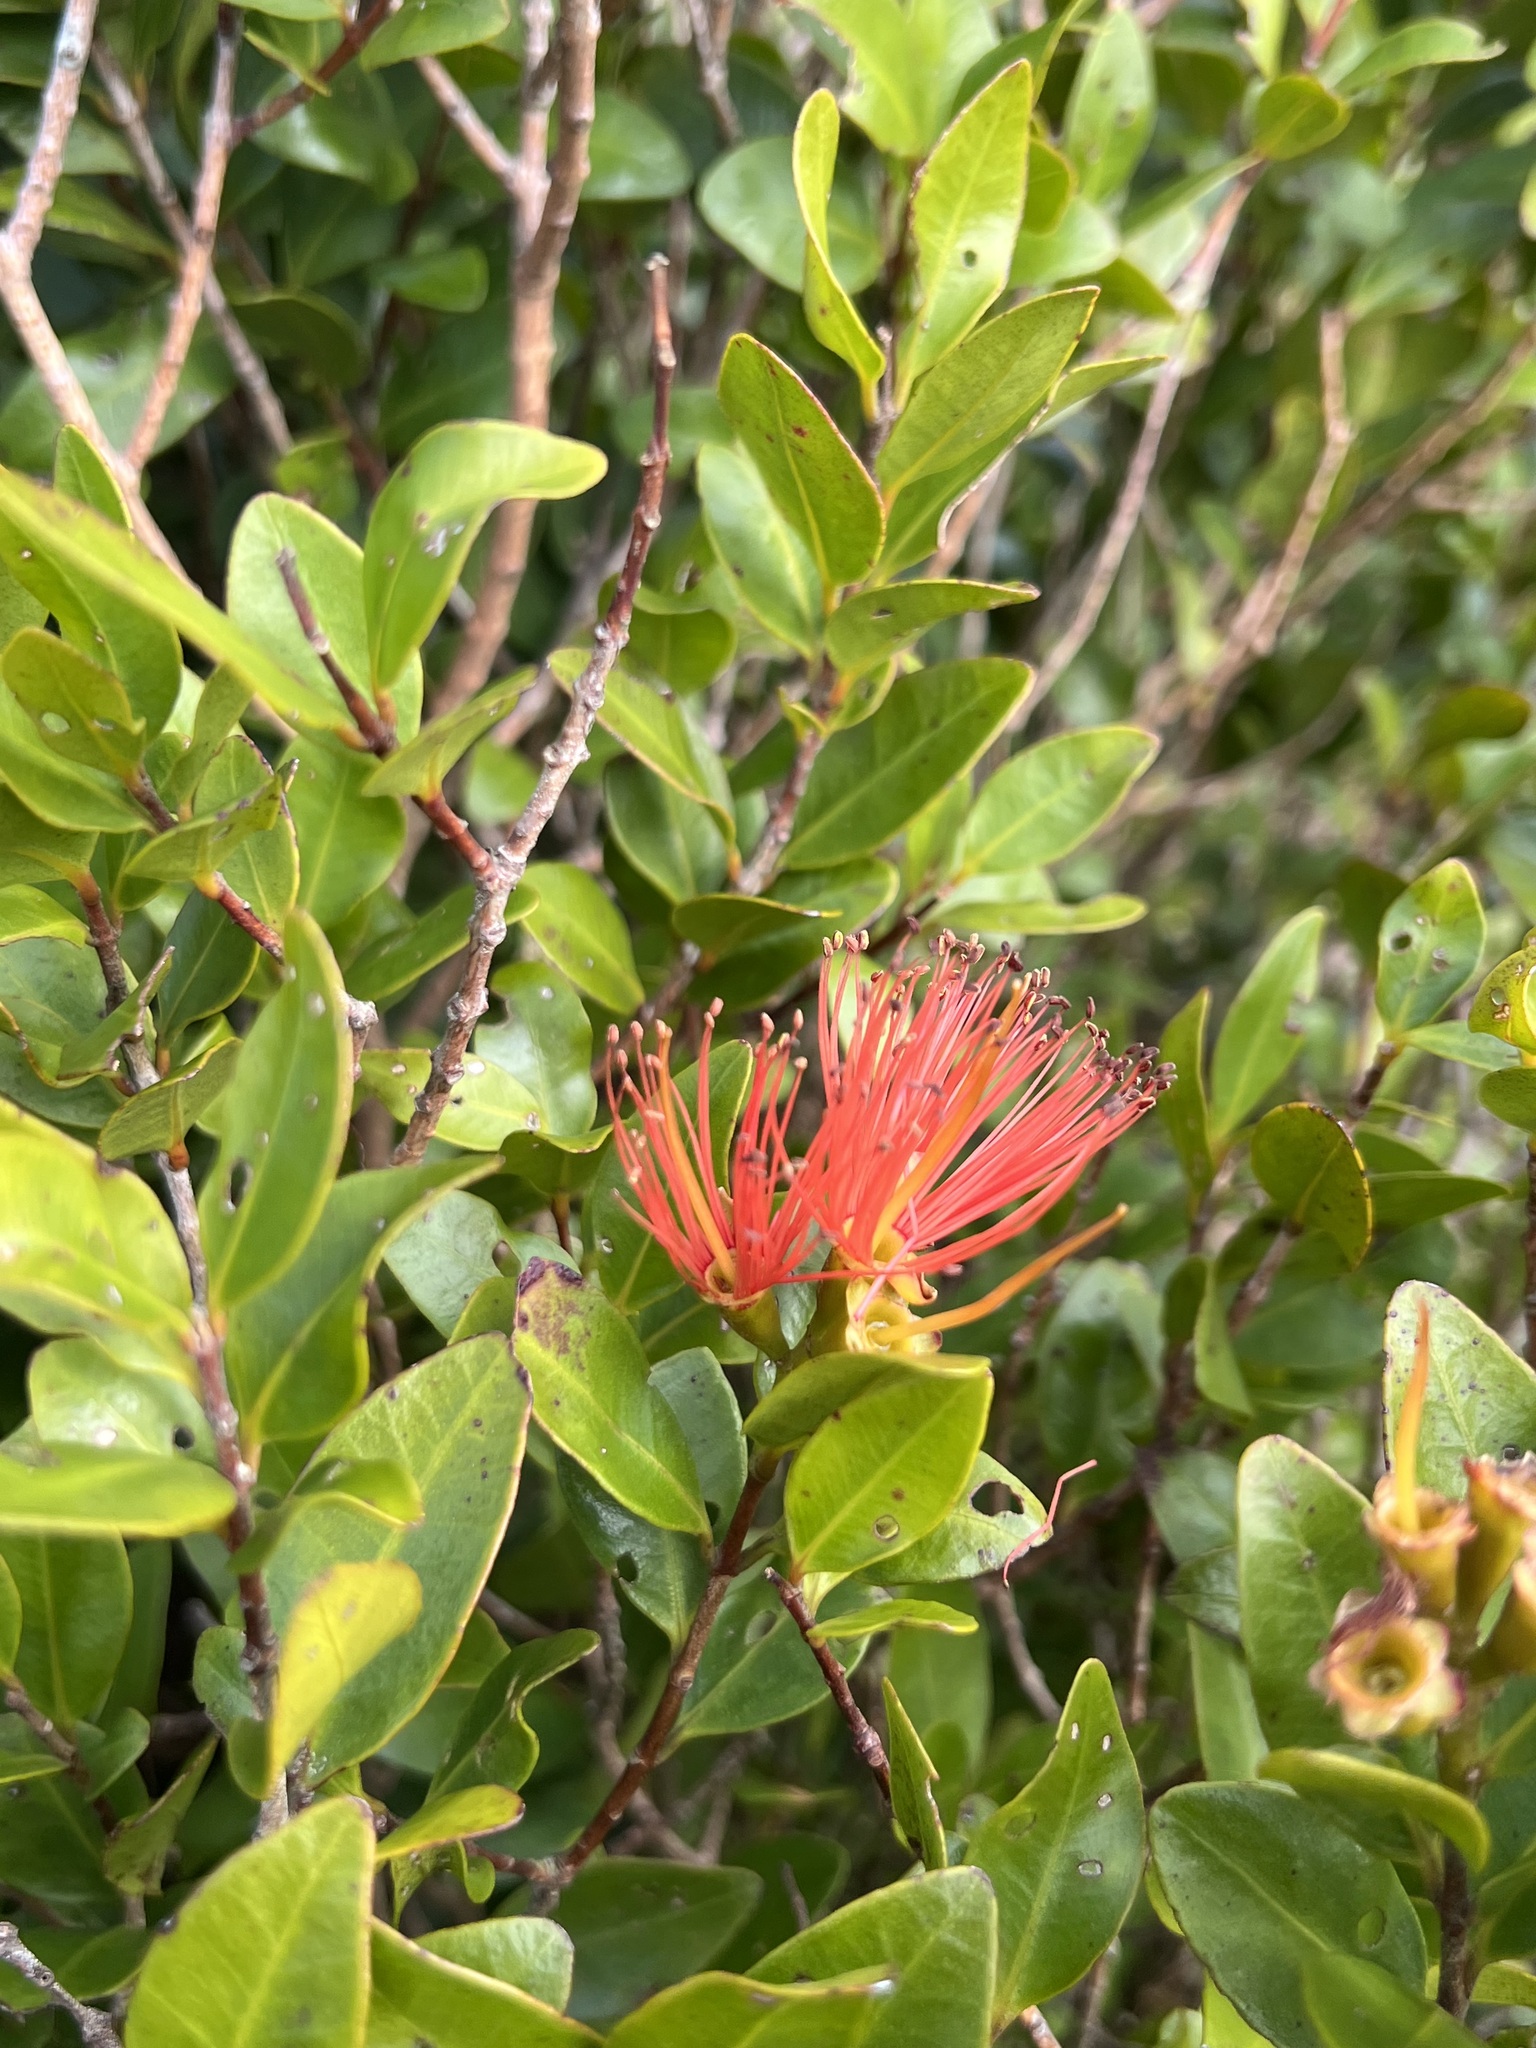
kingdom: Plantae
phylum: Tracheophyta
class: Magnoliopsida
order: Myrtales
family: Myrtaceae
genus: Metrosideros
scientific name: Metrosideros fulgens
